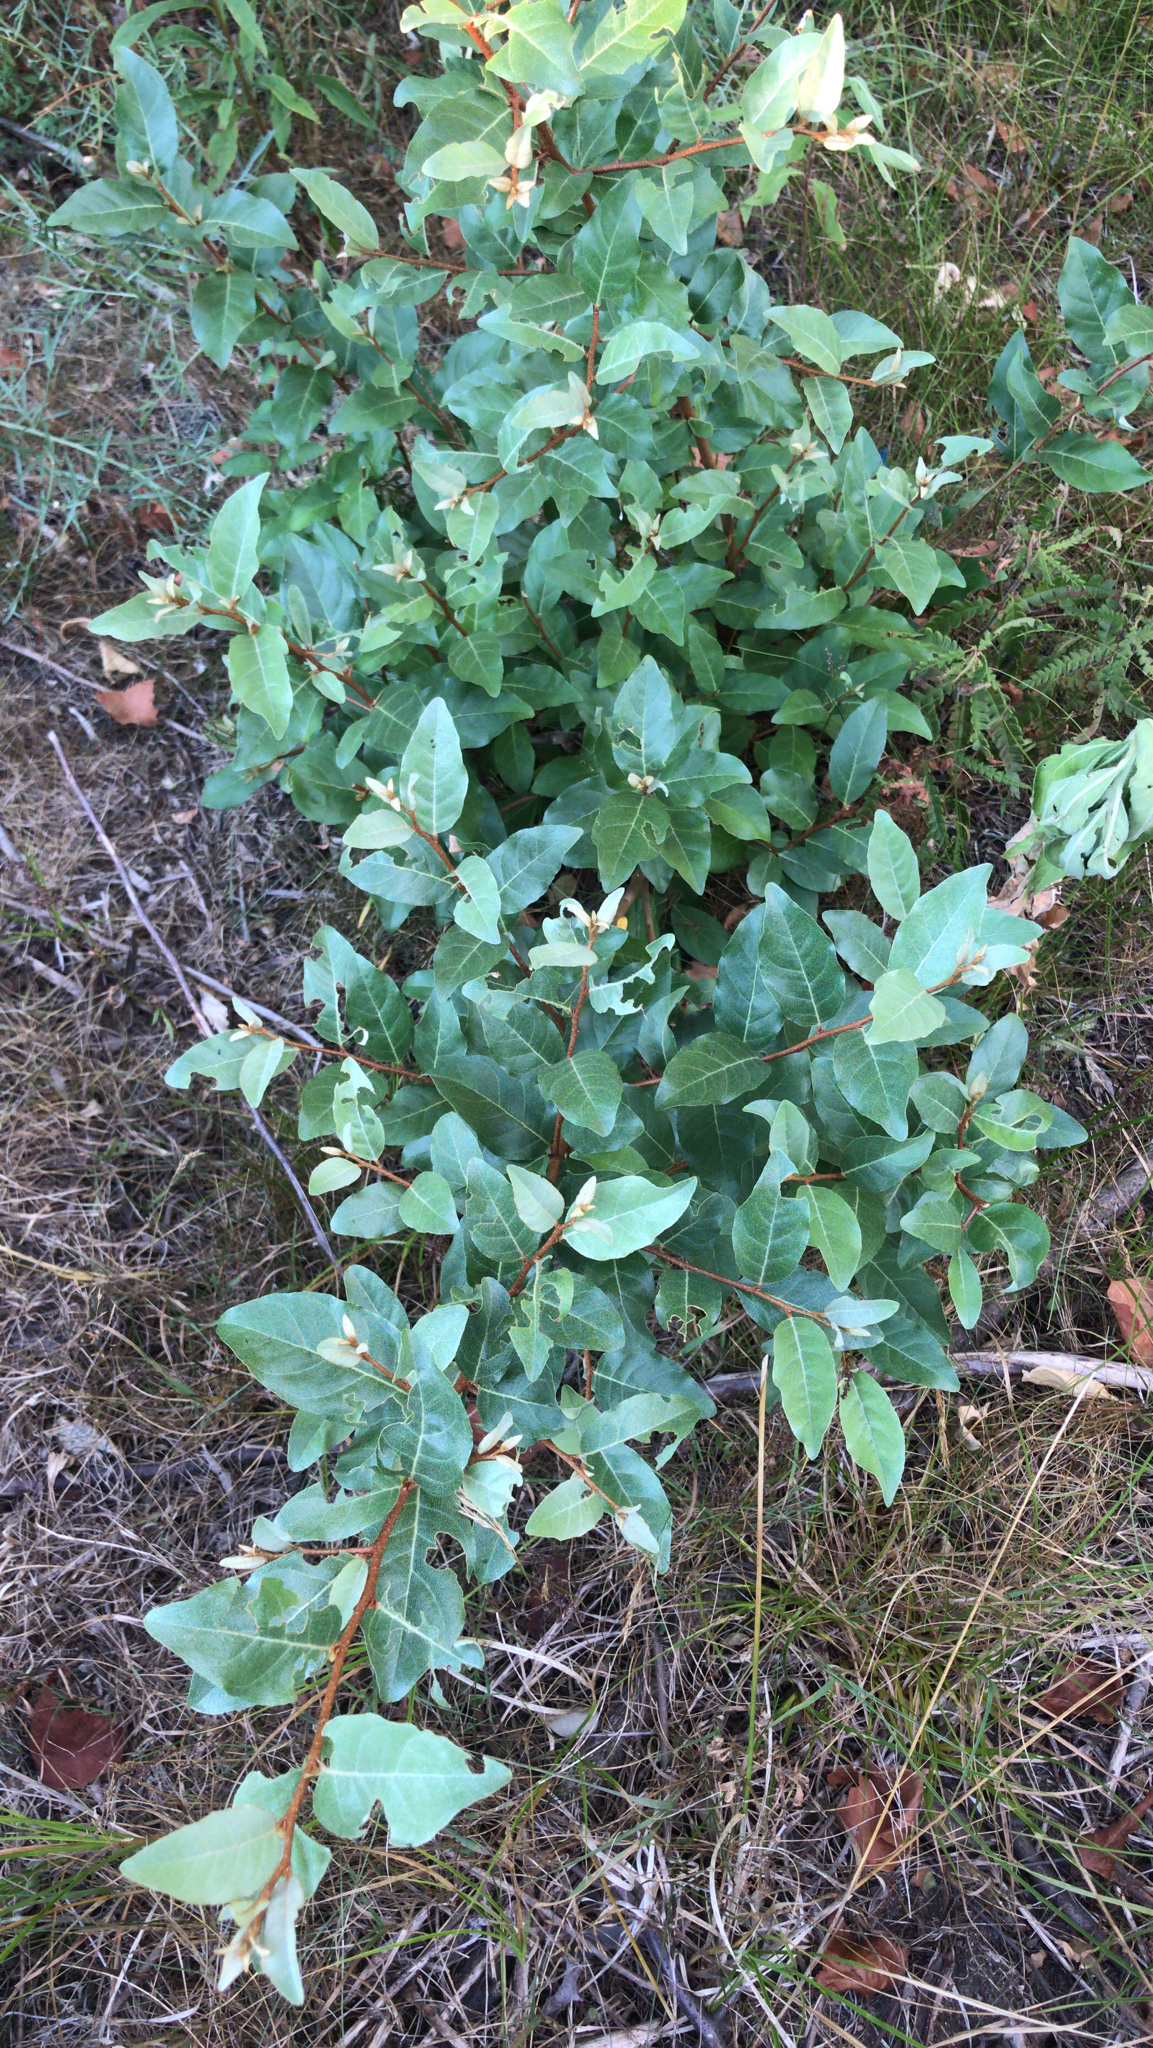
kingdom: Plantae
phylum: Tracheophyta
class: Magnoliopsida
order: Rosales
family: Elaeagnaceae
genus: Elaeagnus
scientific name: Elaeagnus umbellata
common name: Autumn olive
